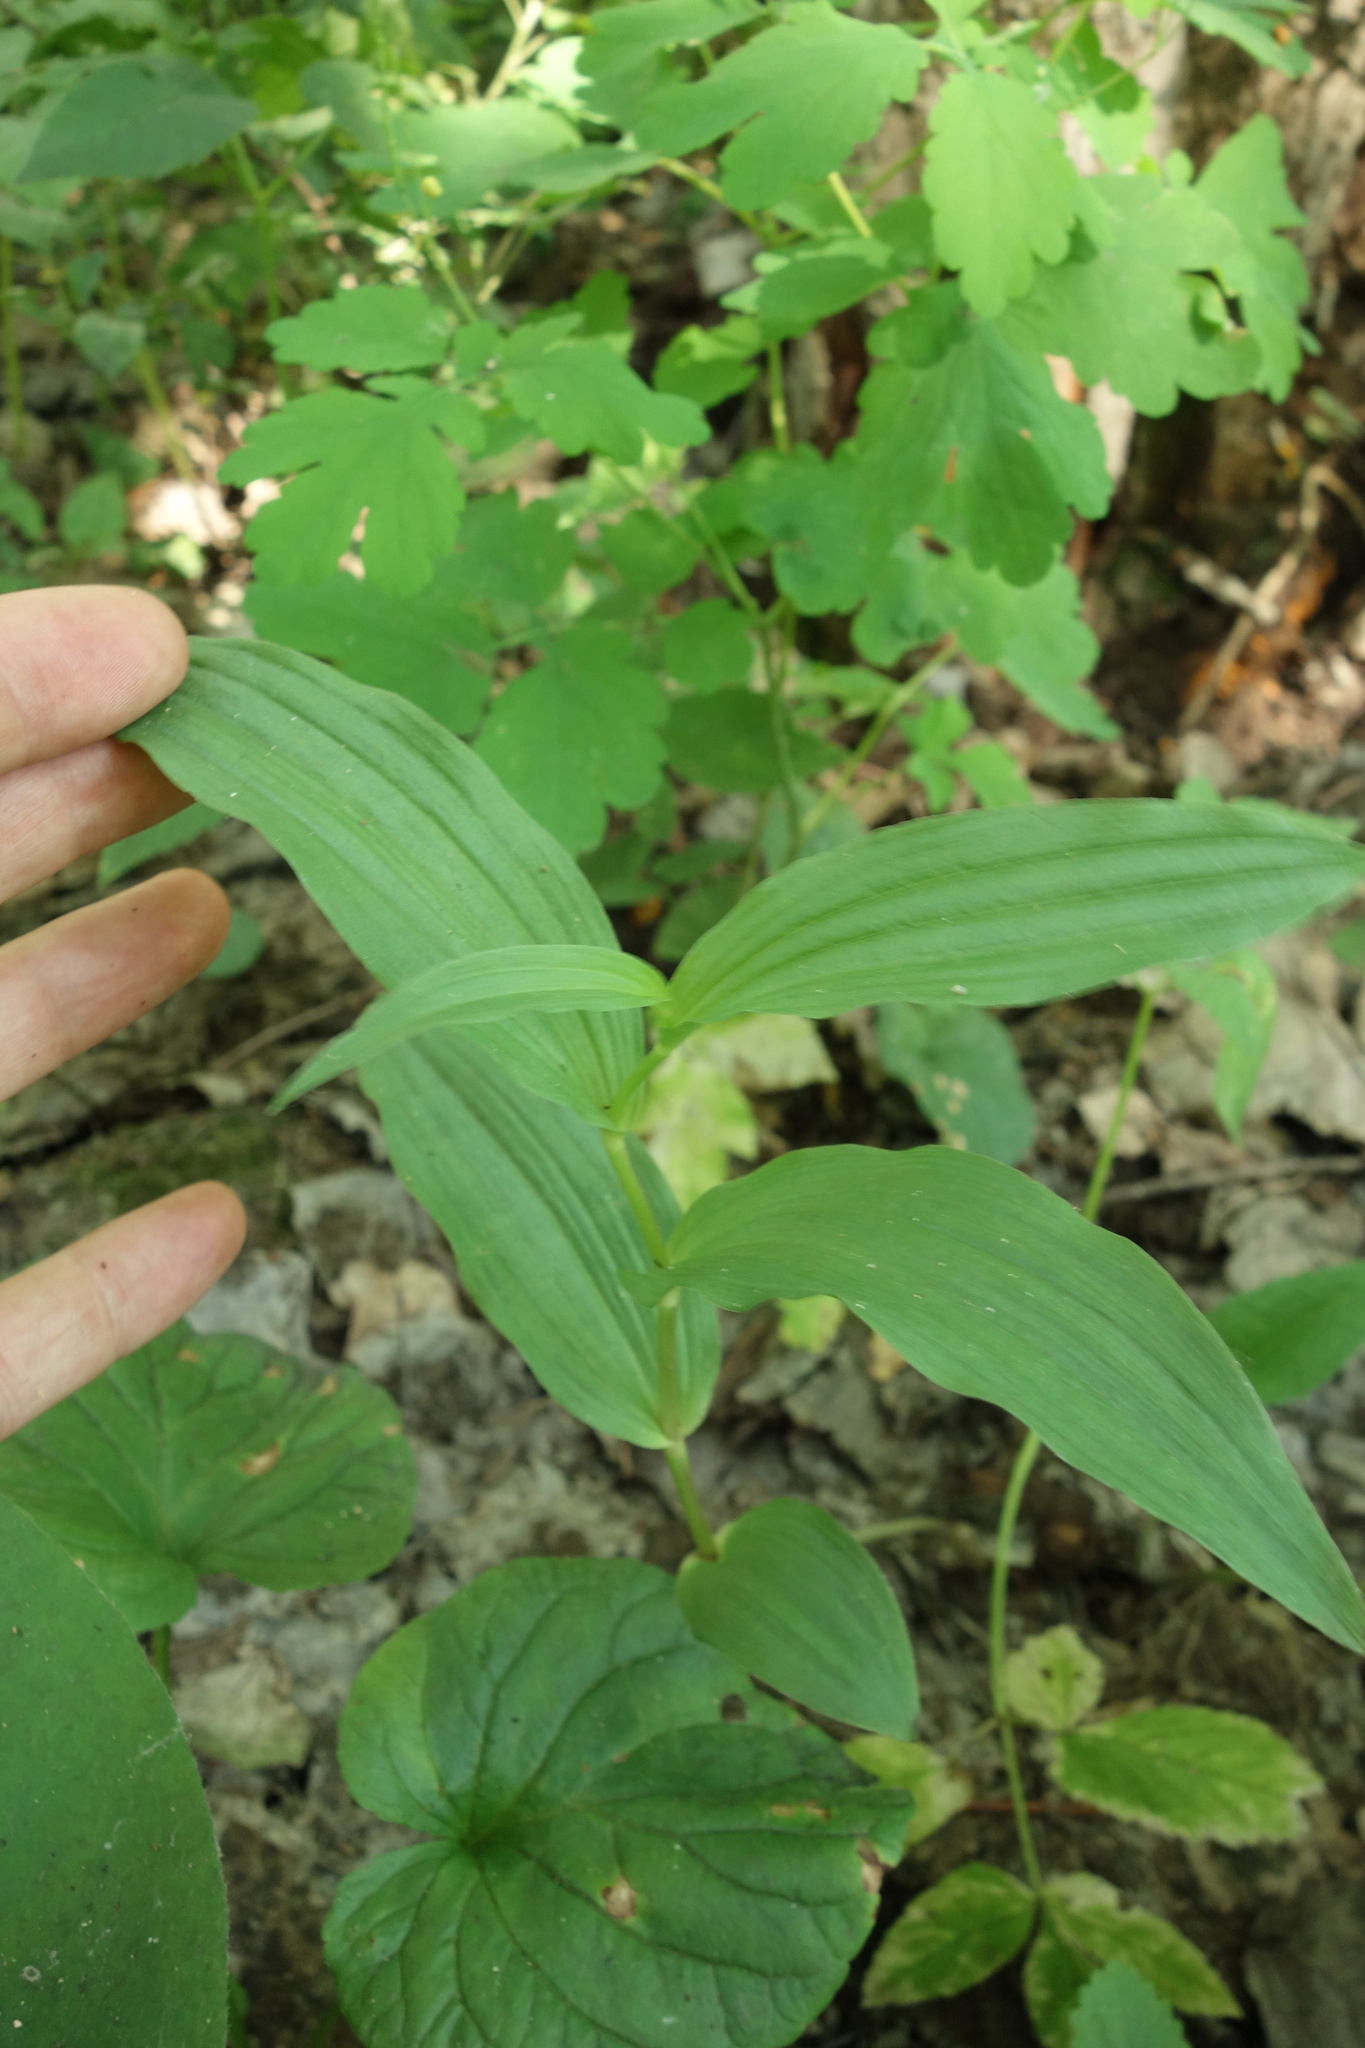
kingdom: Plantae
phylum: Tracheophyta
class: Liliopsida
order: Asparagales
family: Orchidaceae
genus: Epipactis
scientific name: Epipactis helleborine
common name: Broad-leaved helleborine
